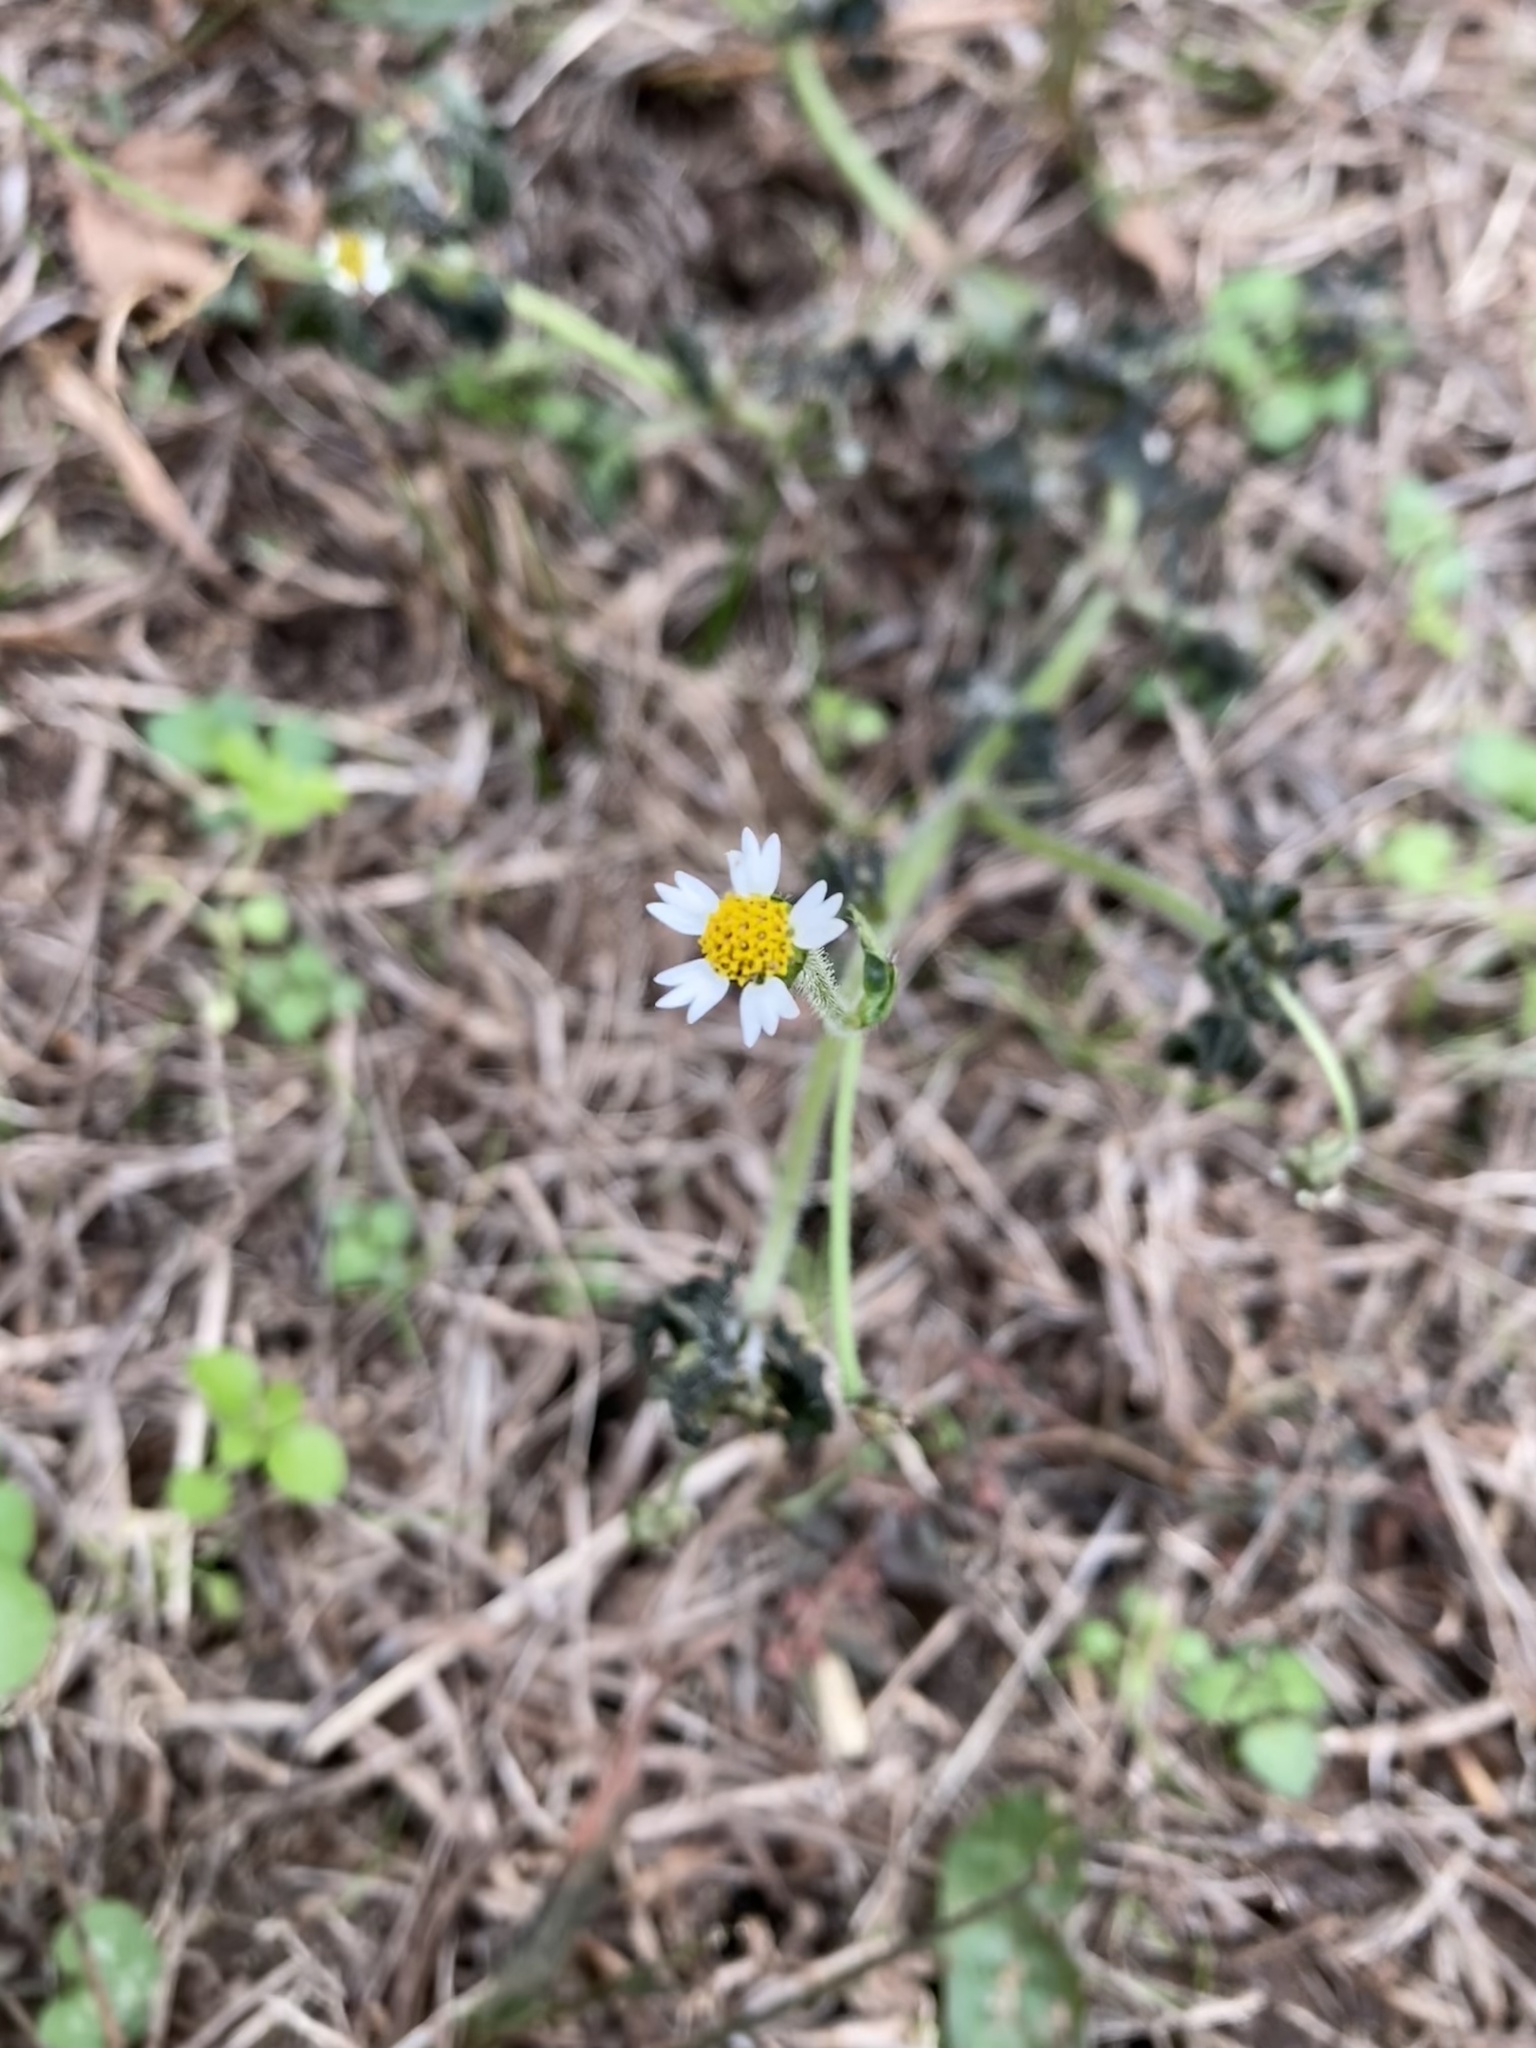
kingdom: Plantae
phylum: Tracheophyta
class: Magnoliopsida
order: Asterales
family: Asteraceae
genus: Galinsoga
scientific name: Galinsoga quadriradiata
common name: Shaggy soldier
